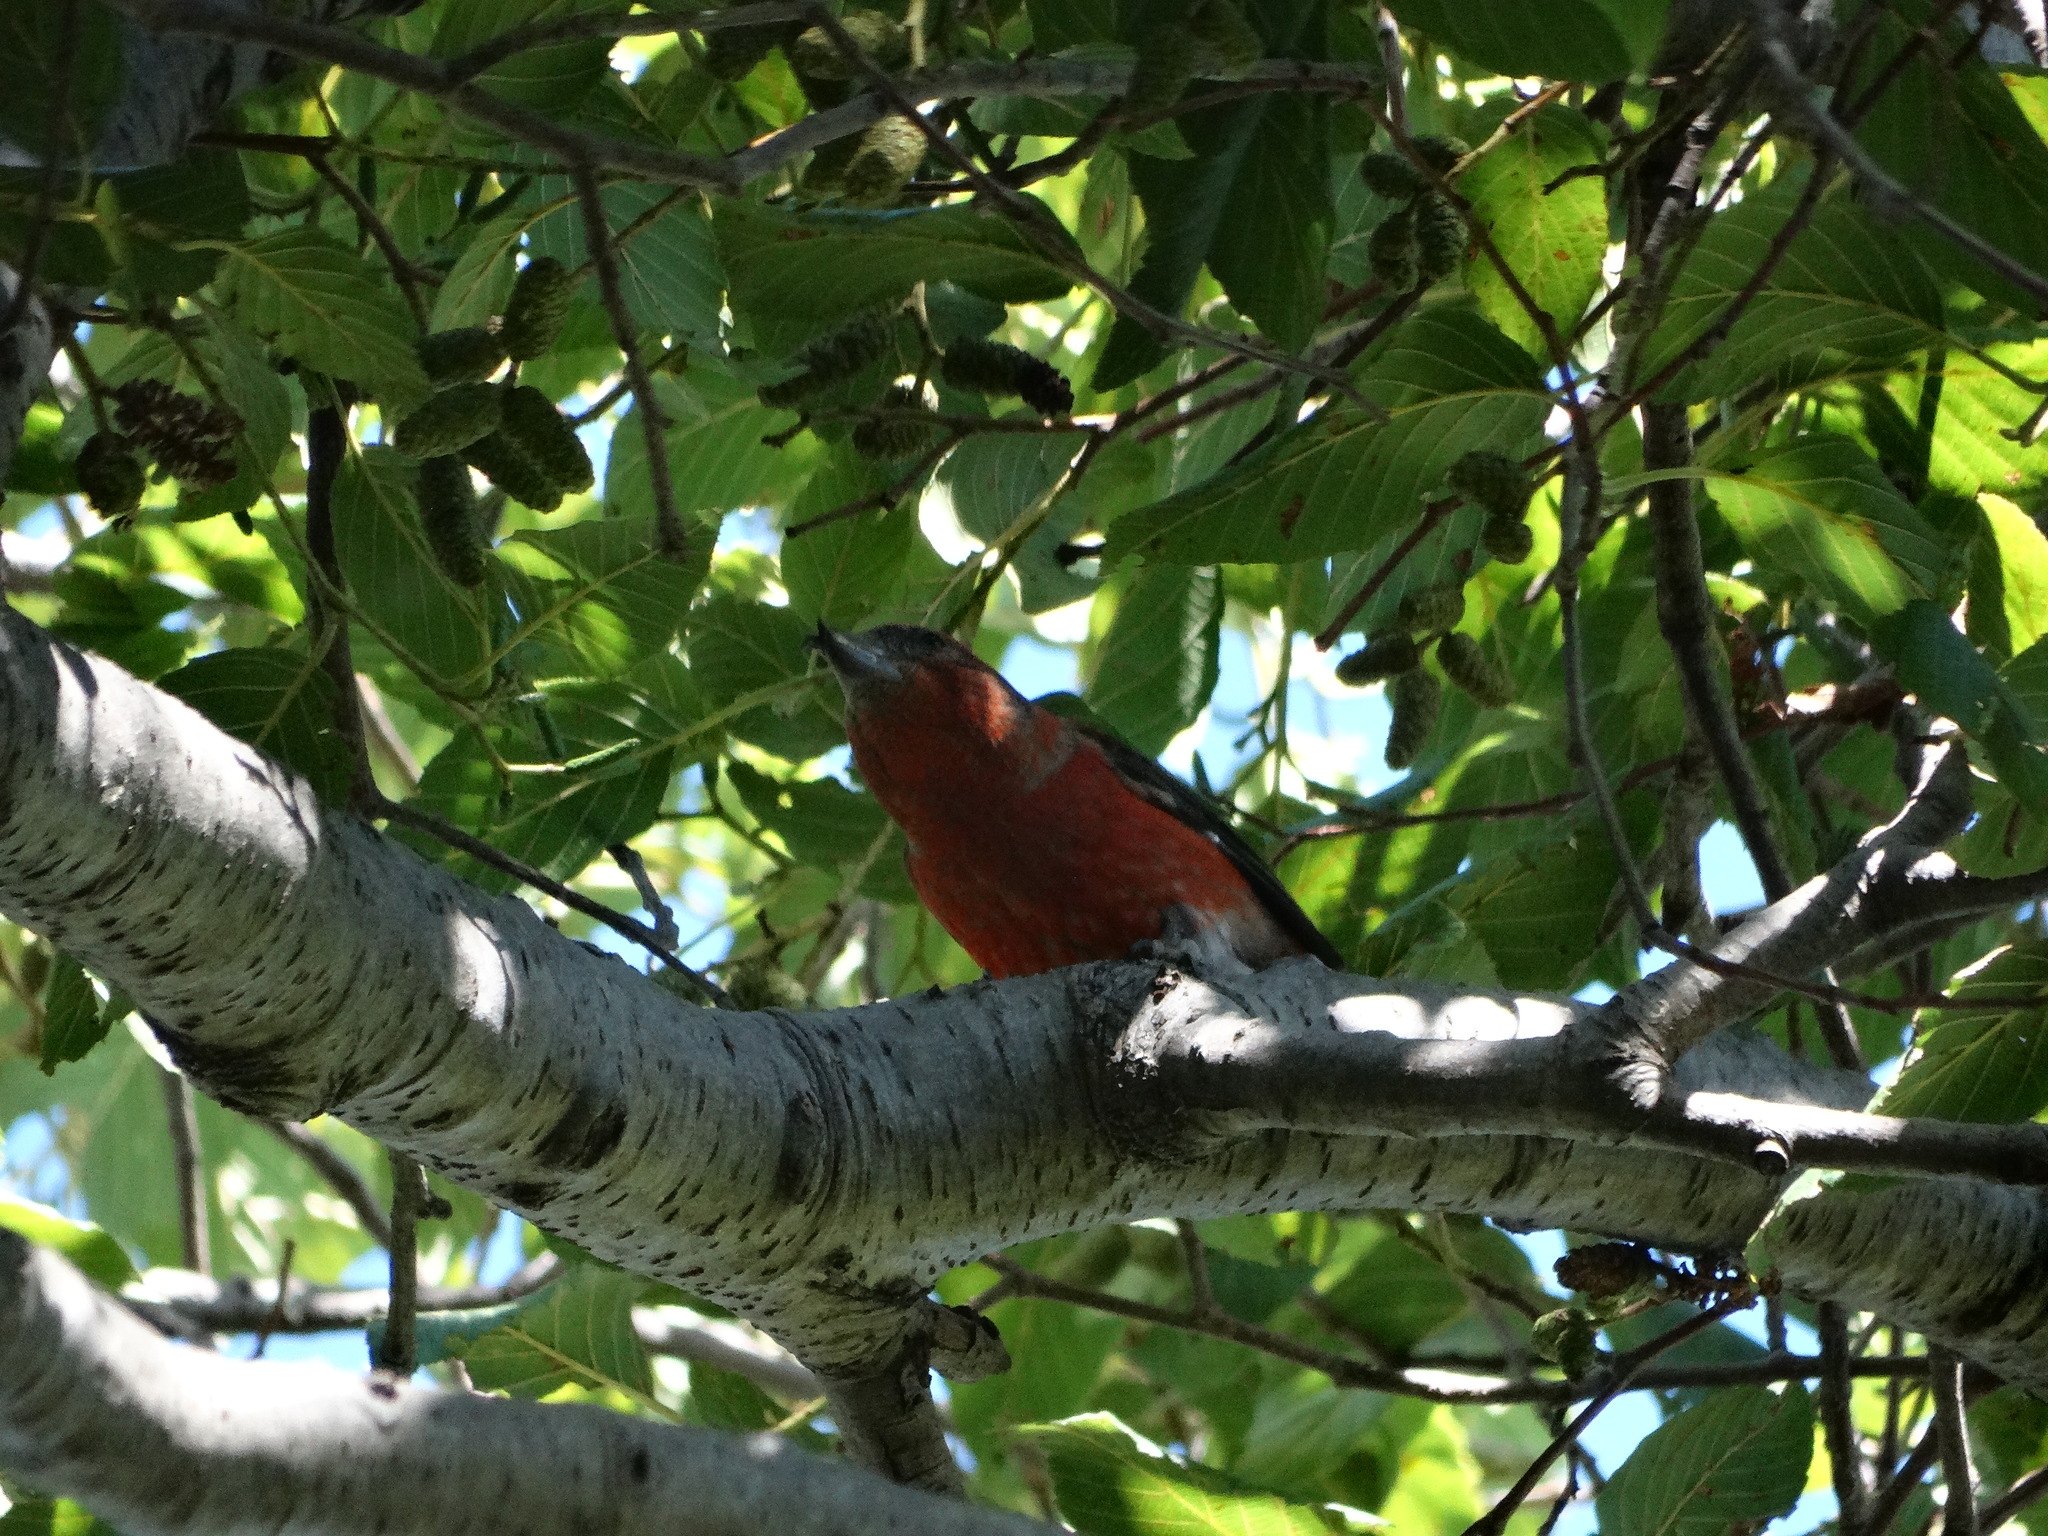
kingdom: Animalia
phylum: Chordata
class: Aves
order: Passeriformes
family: Fringillidae
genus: Loxia
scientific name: Loxia curvirostra
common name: Red crossbill
